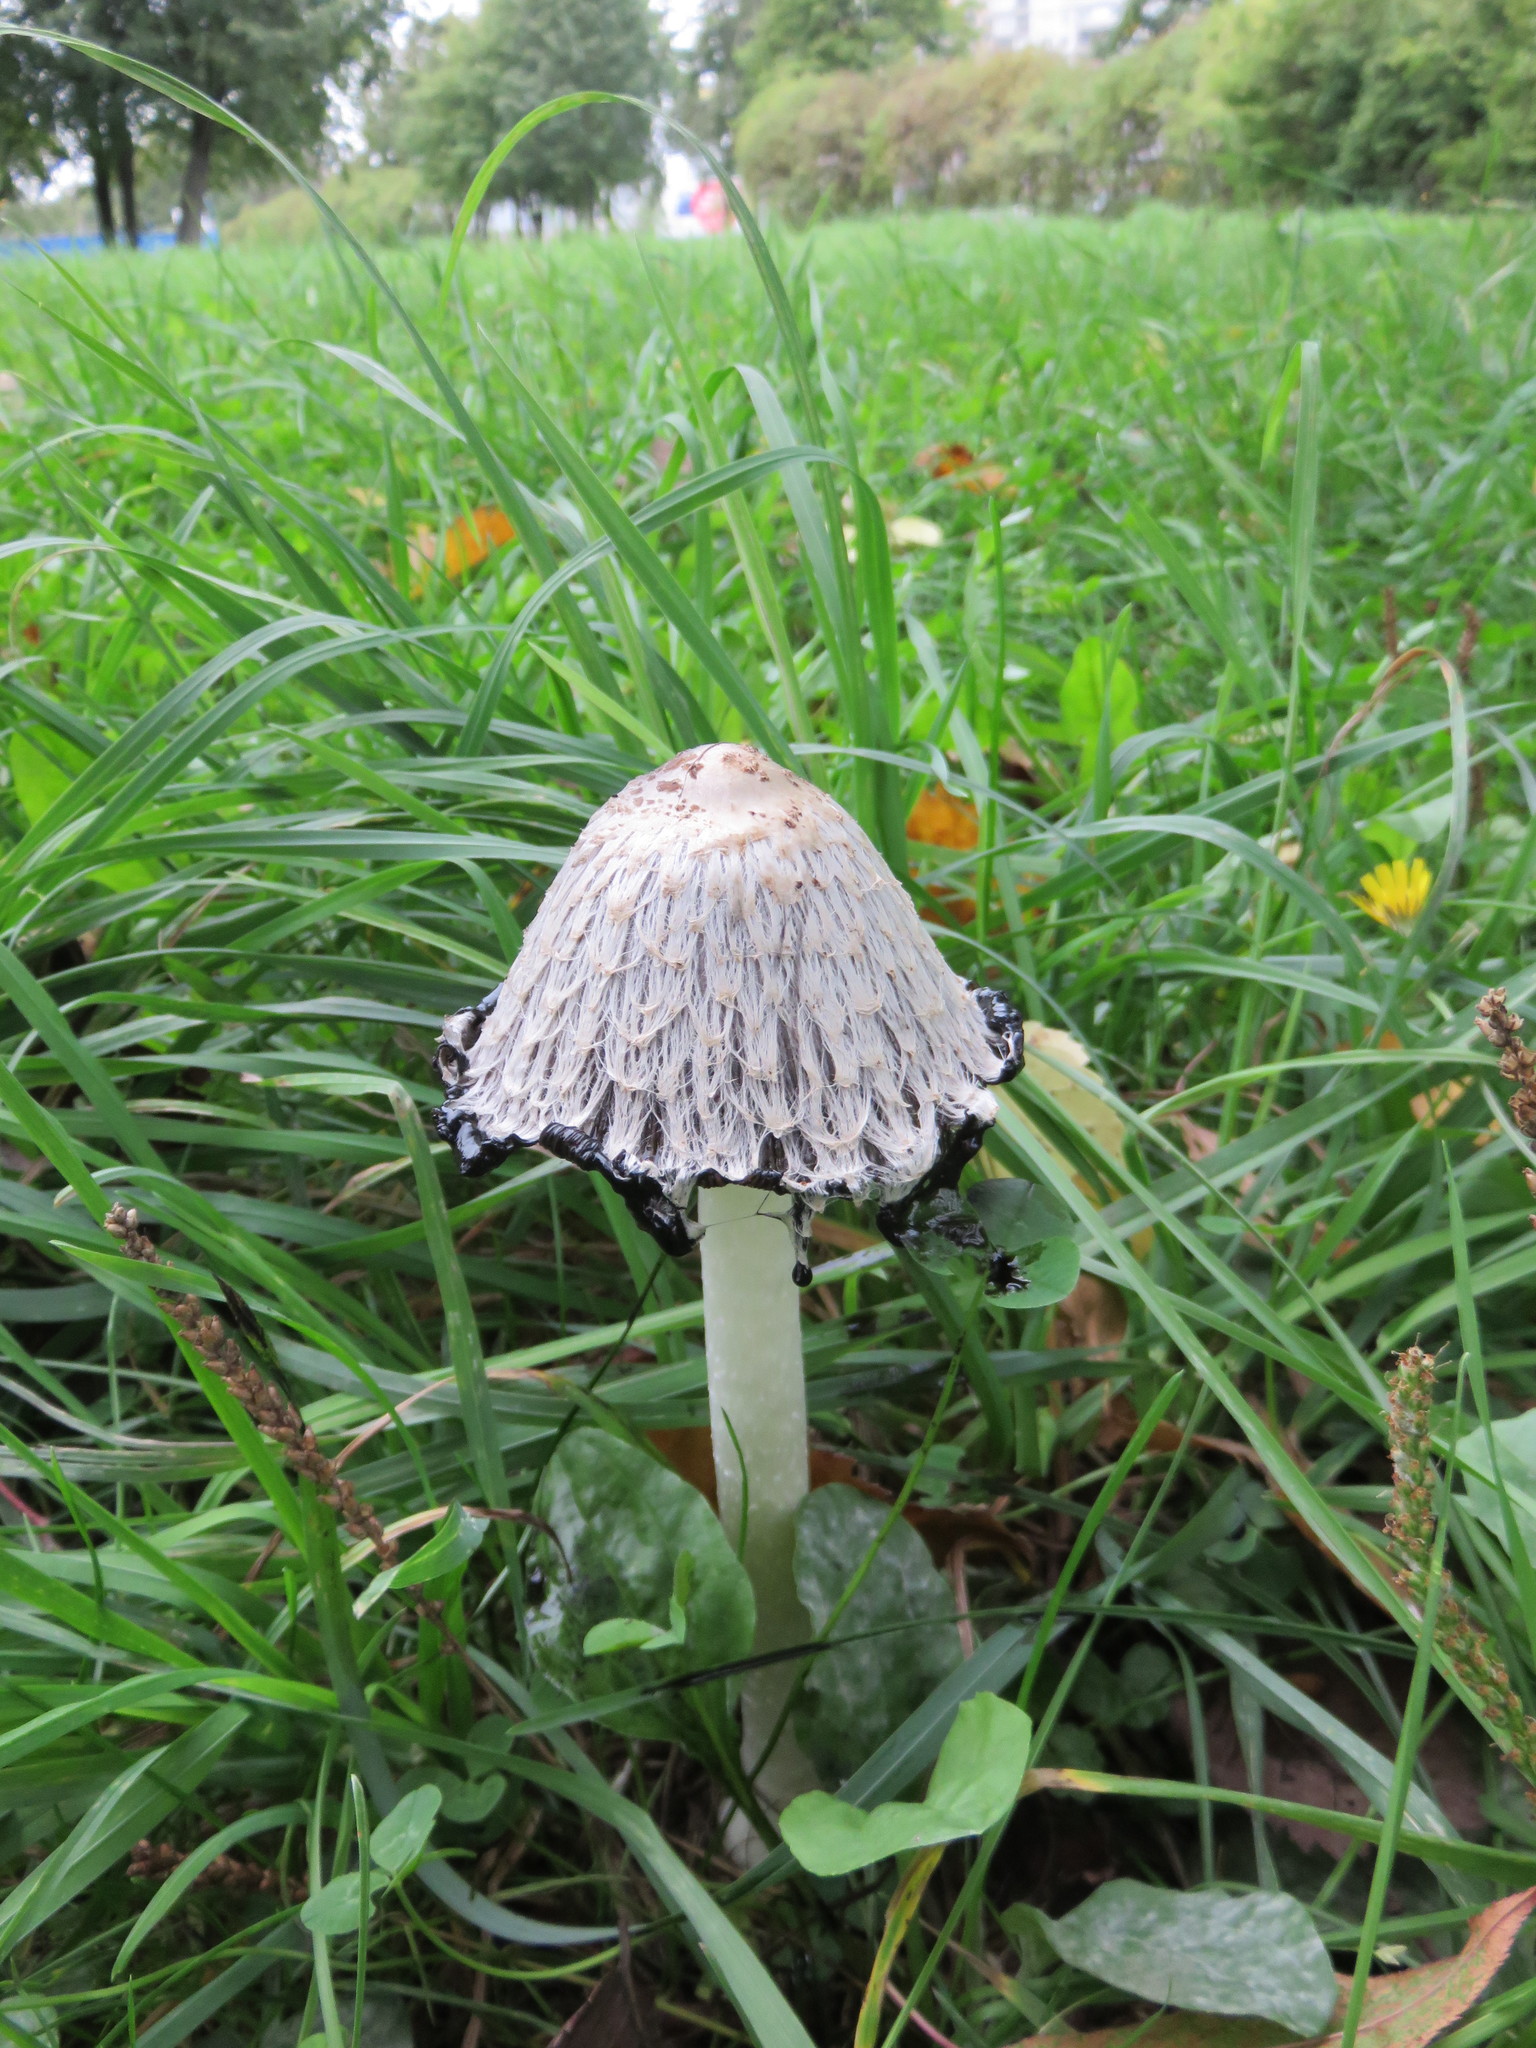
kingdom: Fungi
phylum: Basidiomycota
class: Agaricomycetes
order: Agaricales
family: Agaricaceae
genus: Coprinus
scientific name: Coprinus comatus
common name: Lawyer's wig
